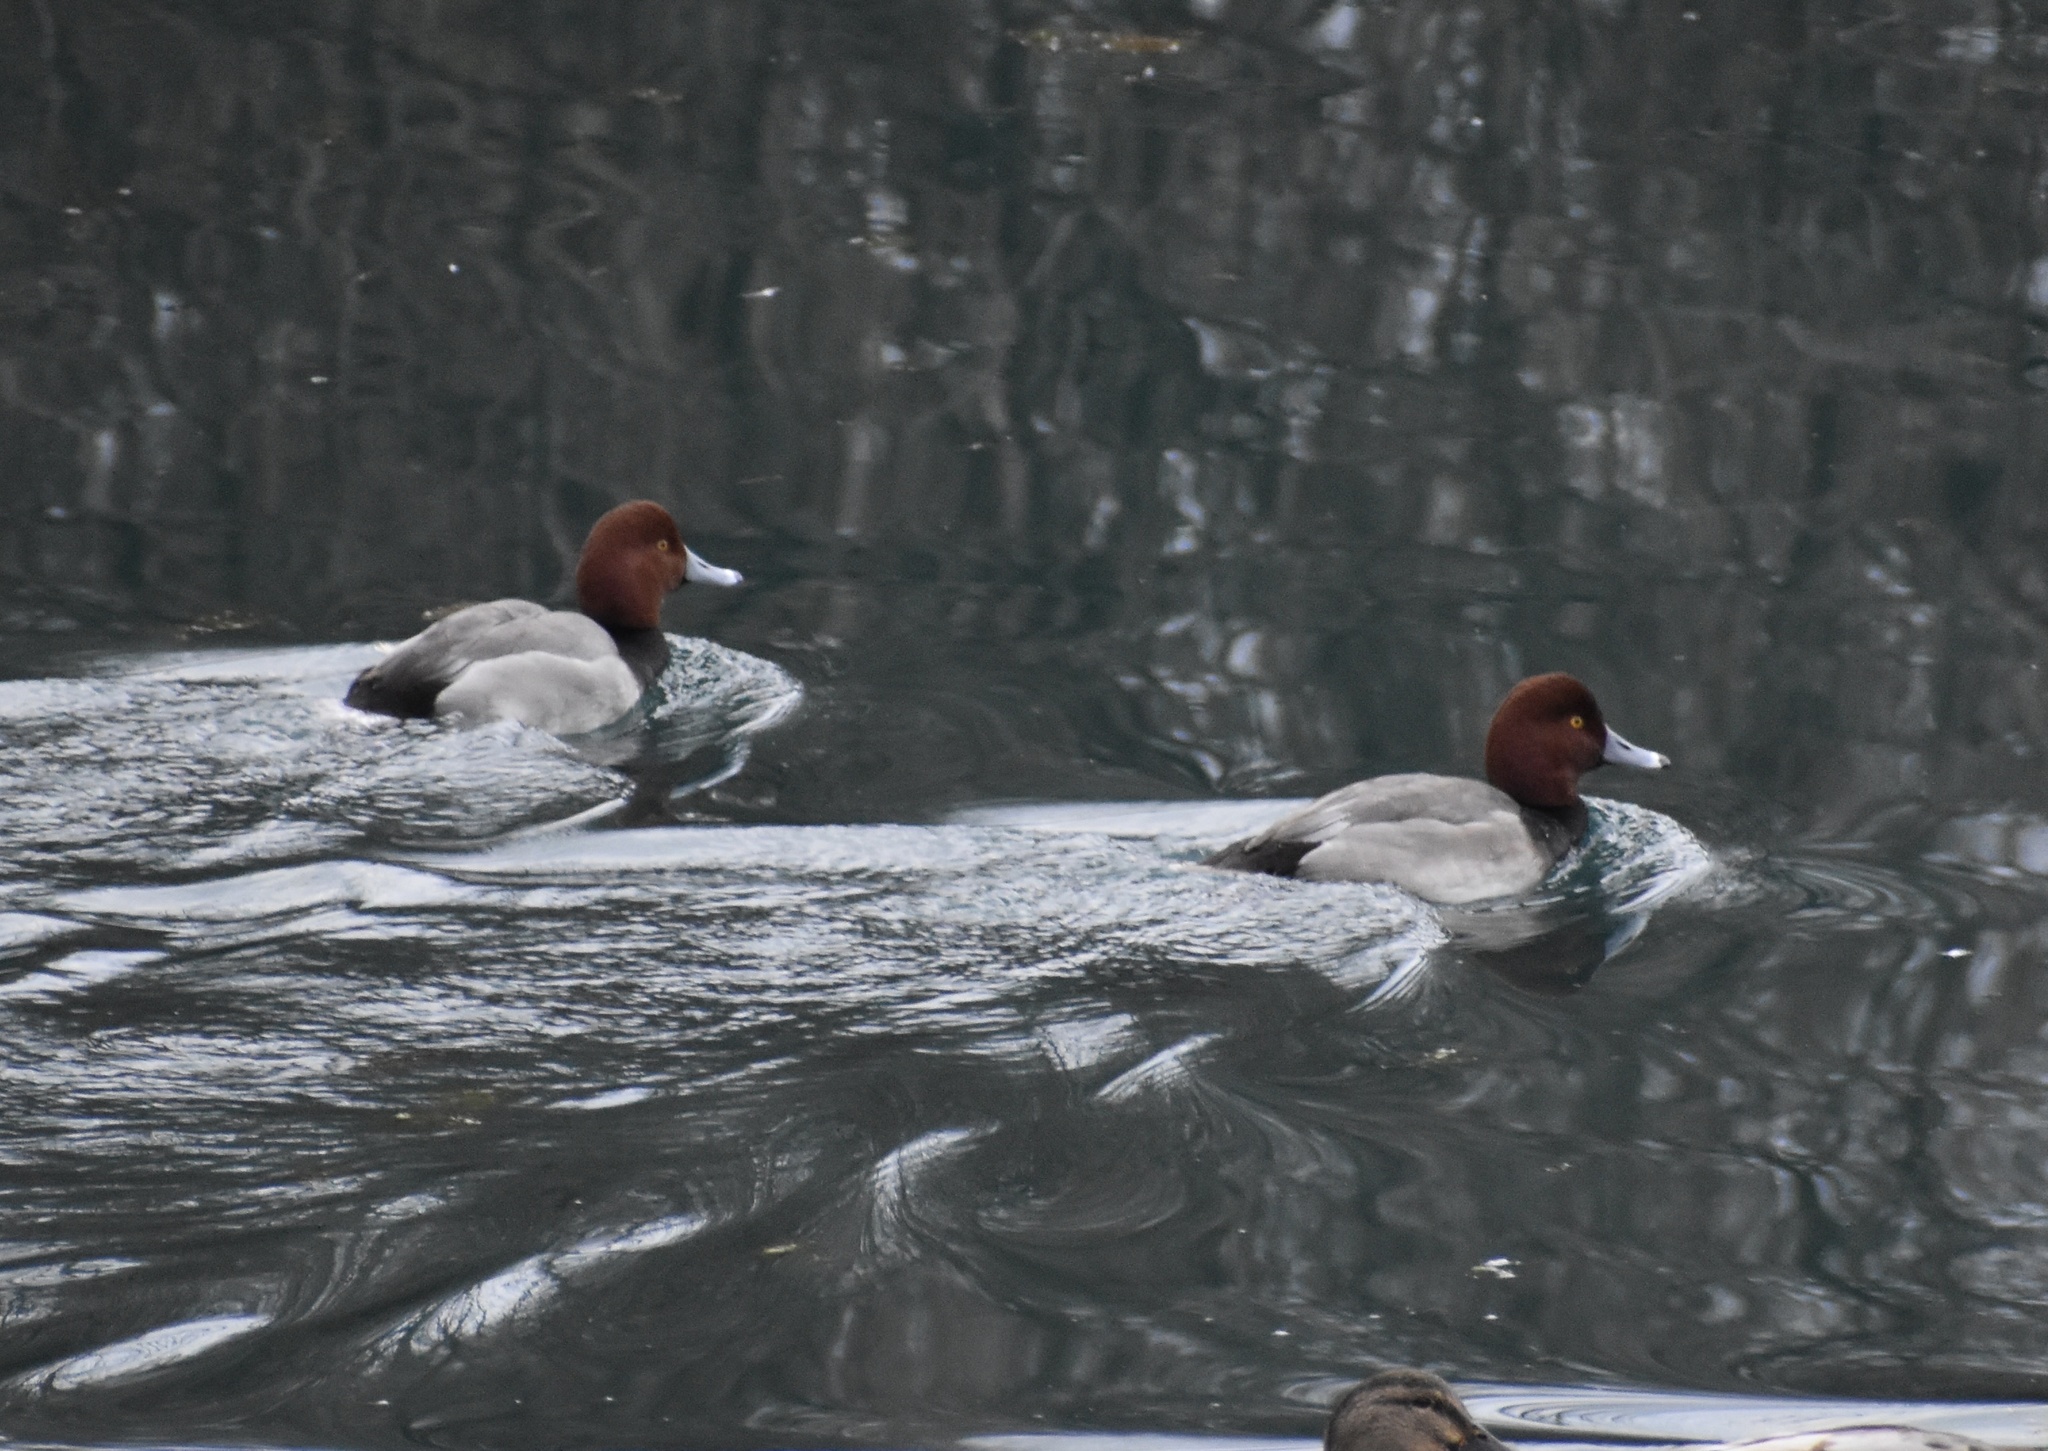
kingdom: Animalia
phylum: Chordata
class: Aves
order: Anseriformes
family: Anatidae
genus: Aythya
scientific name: Aythya americana
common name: Redhead
